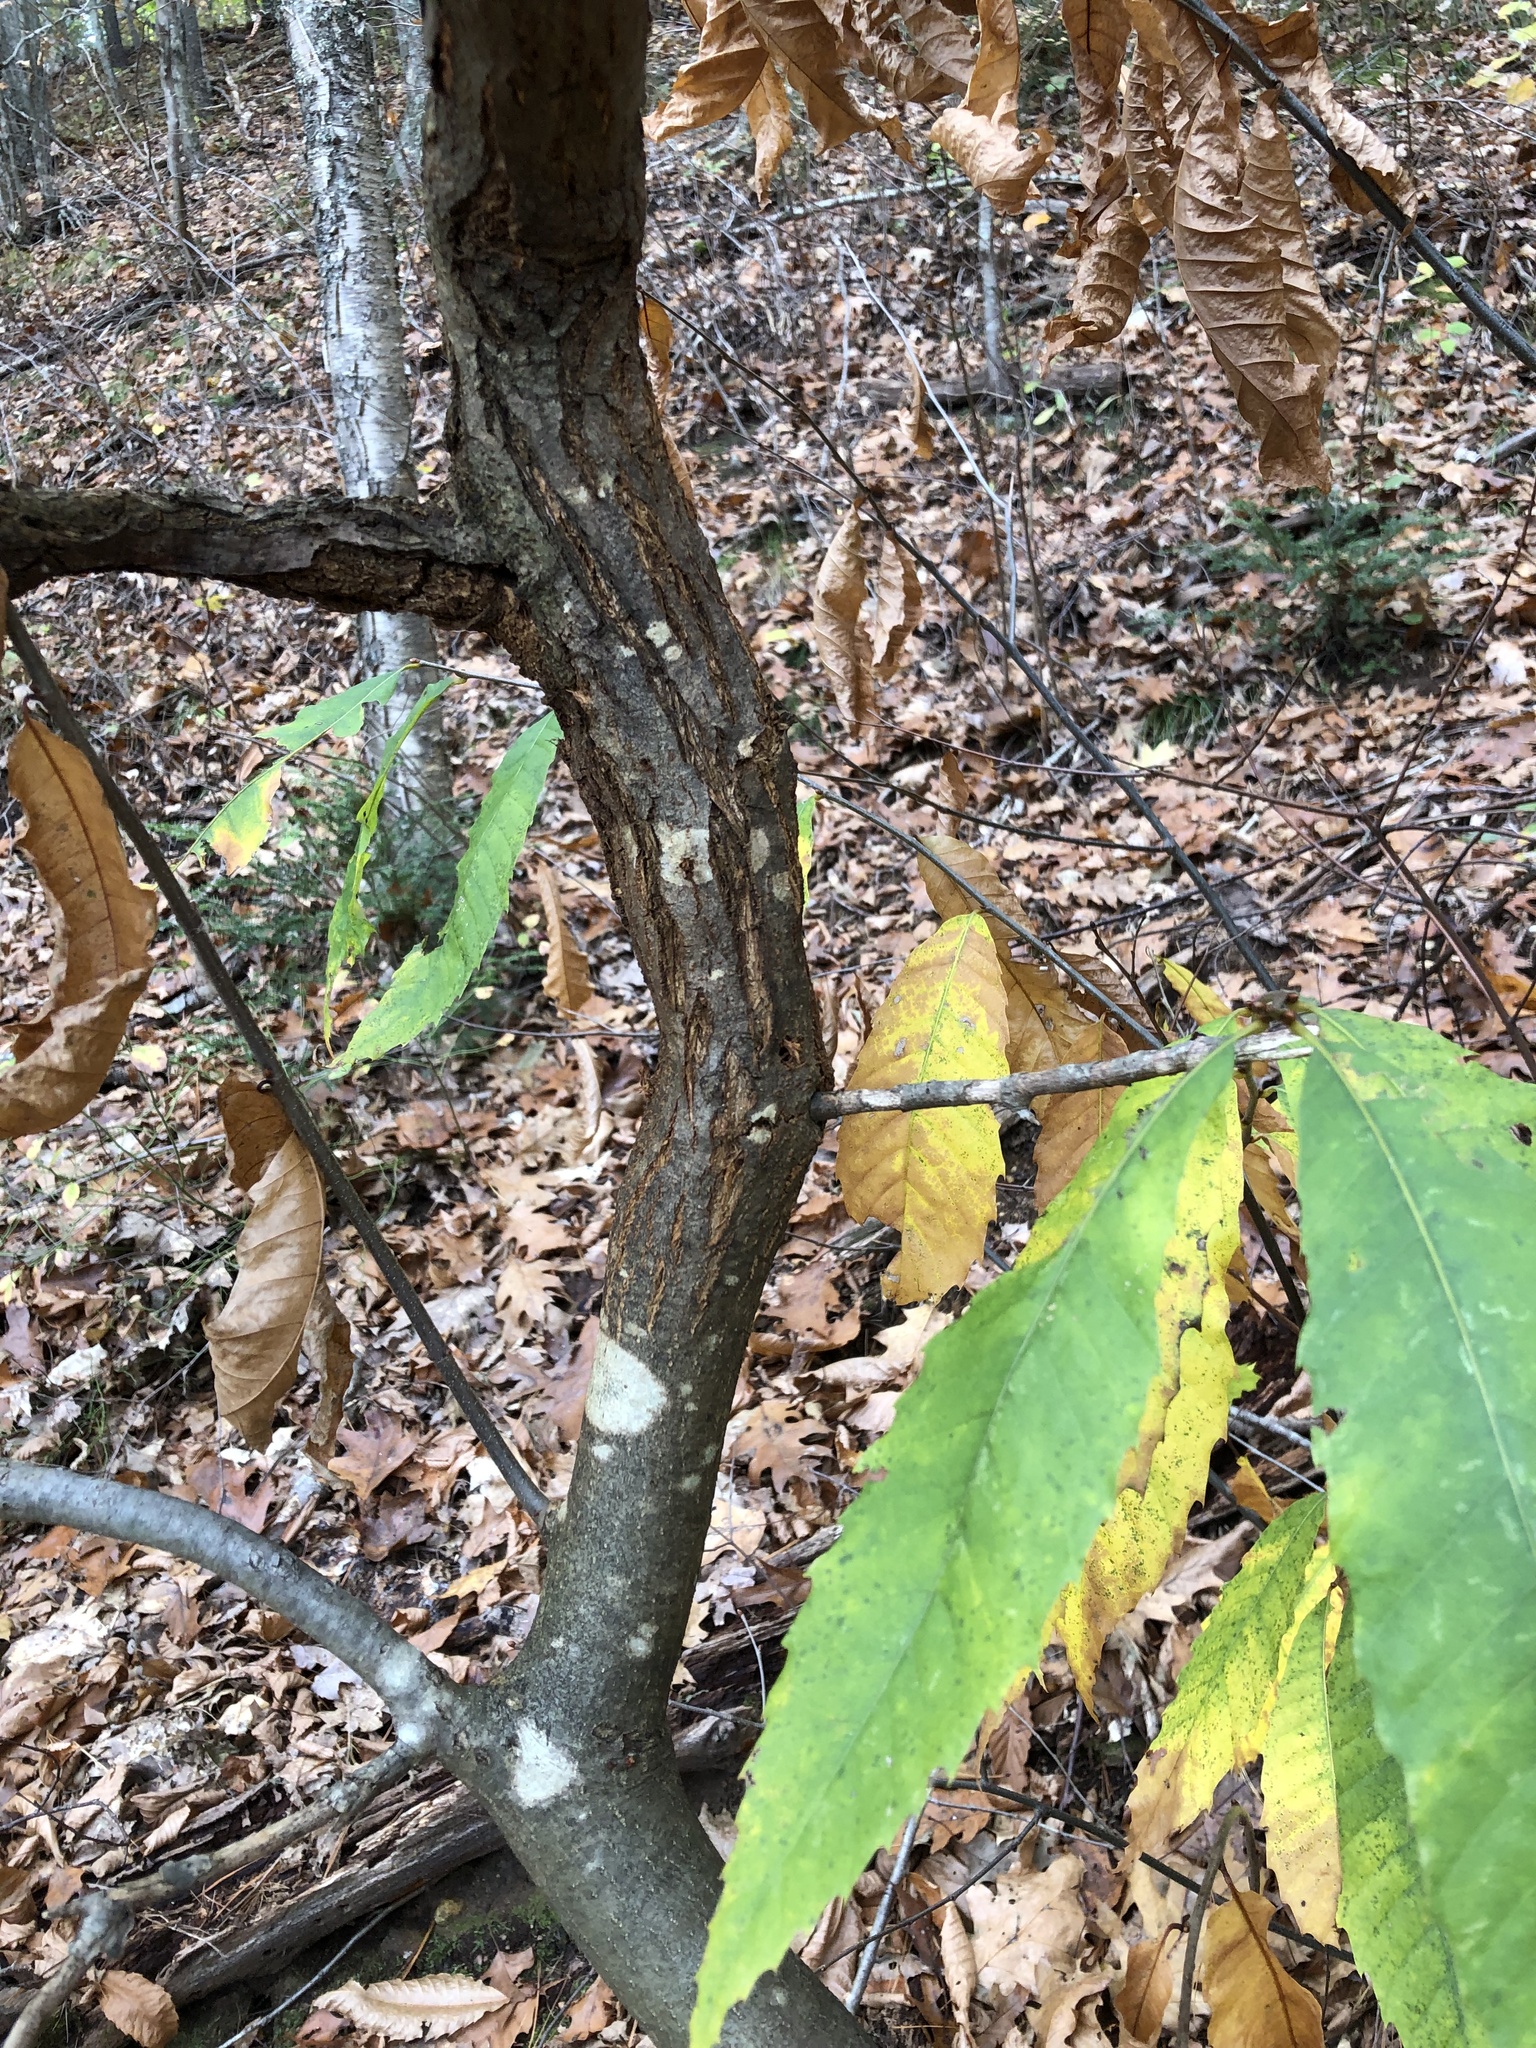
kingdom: Fungi
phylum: Ascomycota
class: Sordariomycetes
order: Diaporthales
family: Cryphonectriaceae
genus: Cryphonectria
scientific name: Cryphonectria parasitica
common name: Chestnut blight
